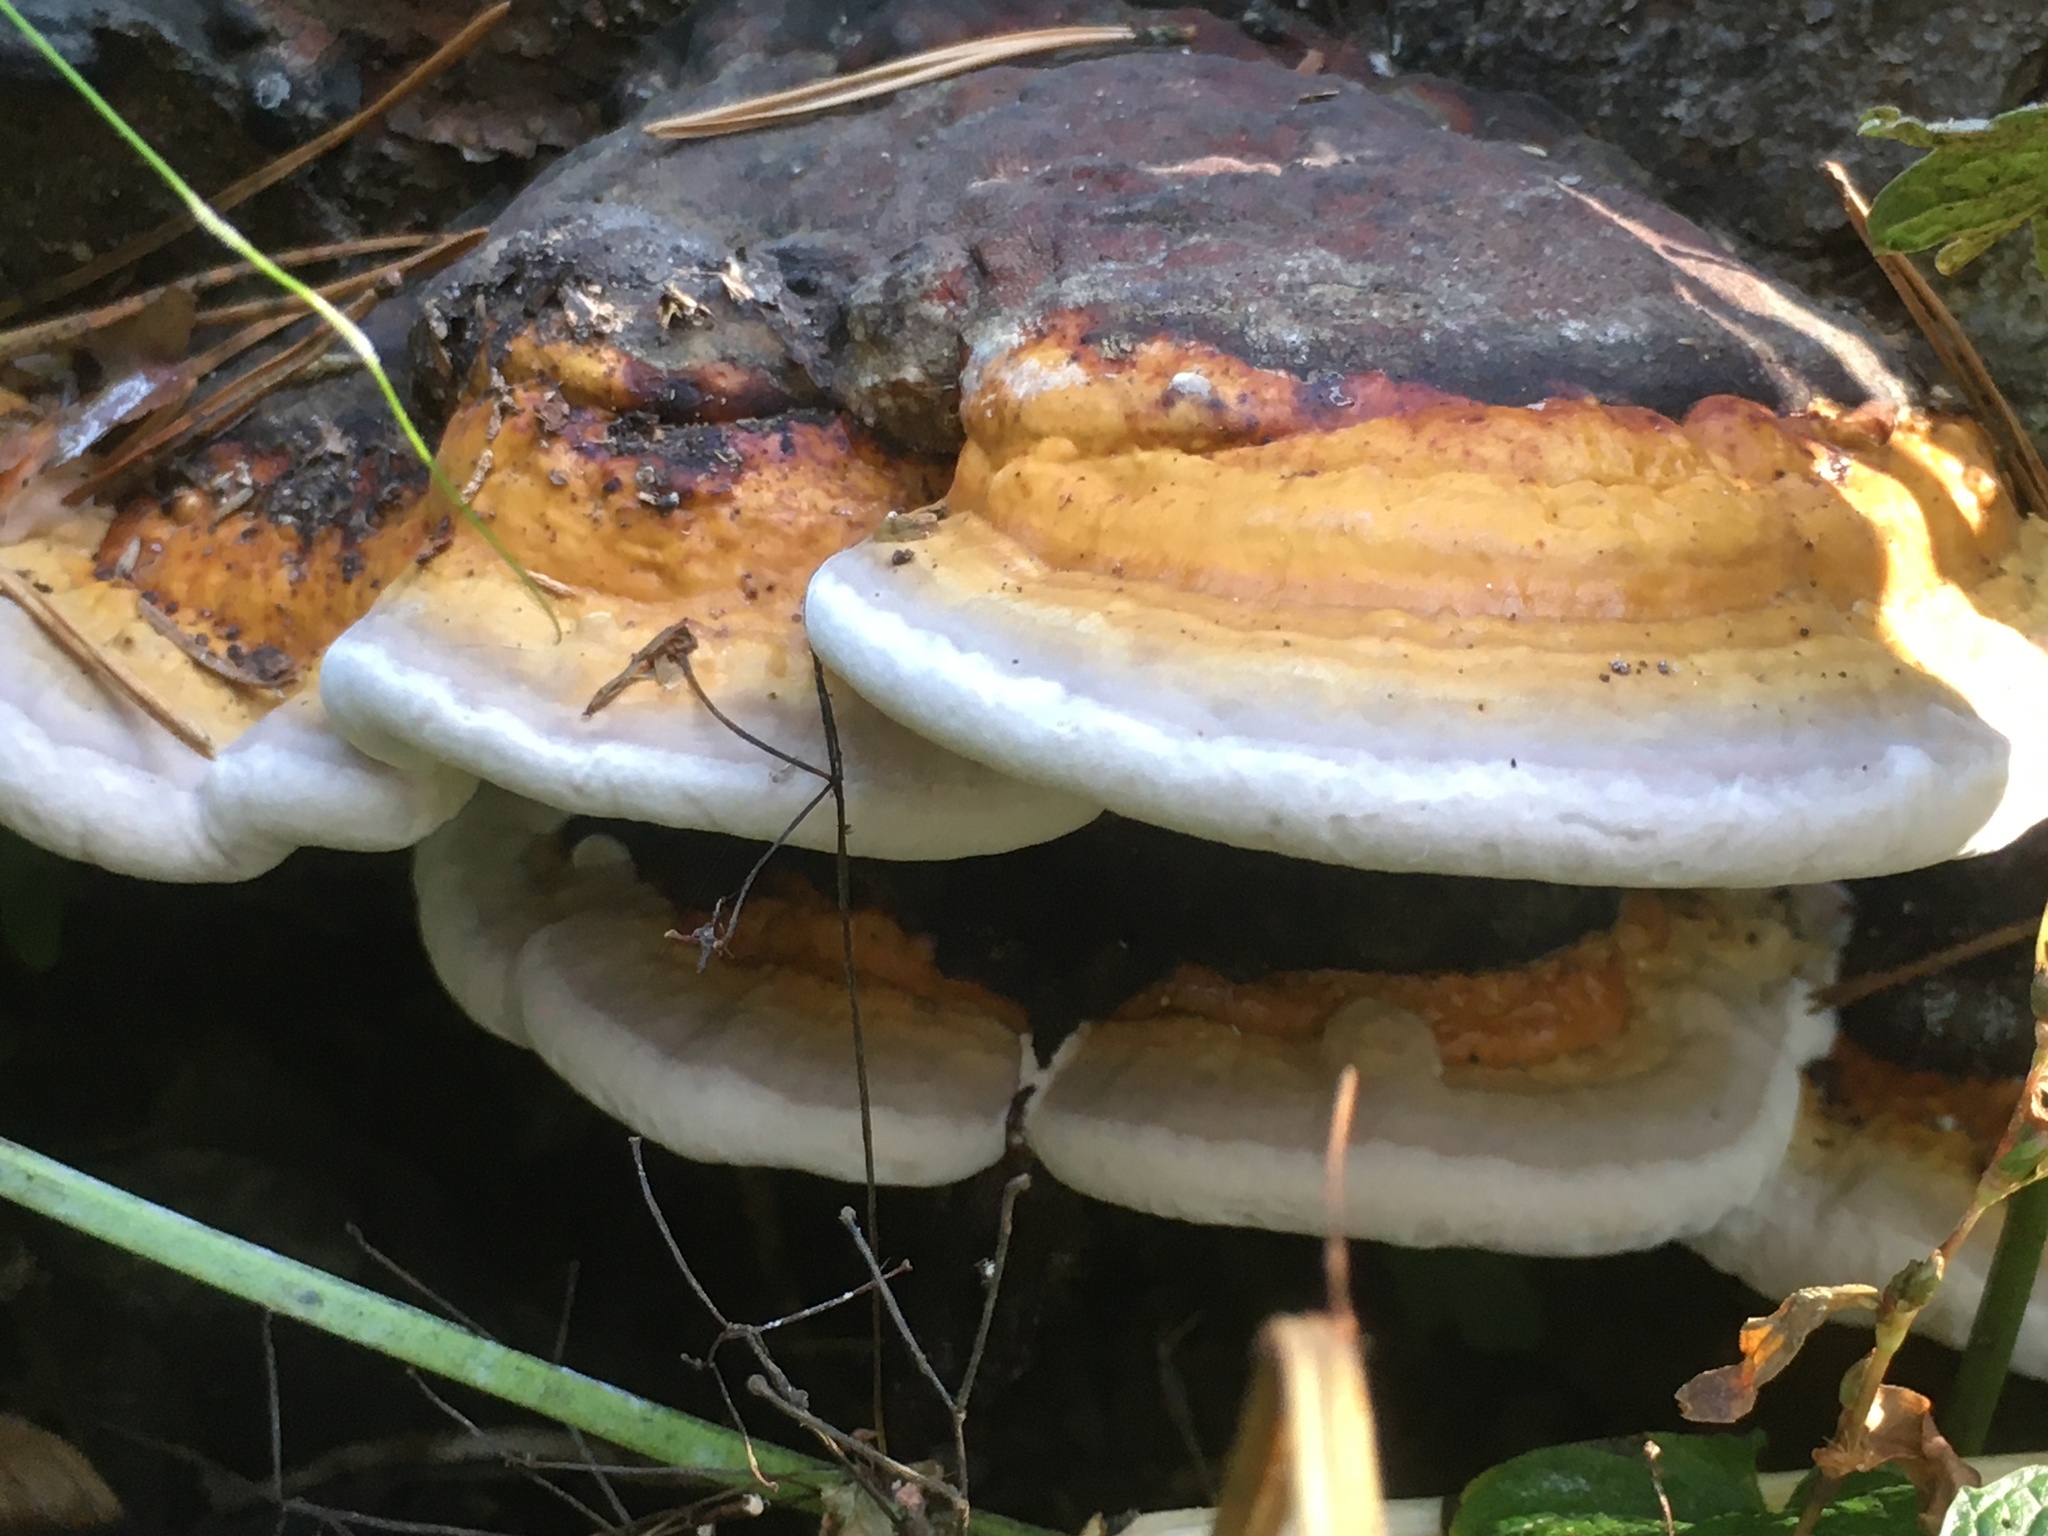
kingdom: Fungi
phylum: Basidiomycota
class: Agaricomycetes
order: Polyporales
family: Fomitopsidaceae
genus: Fomitopsis
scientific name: Fomitopsis pinicola
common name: Red-belted bracket
